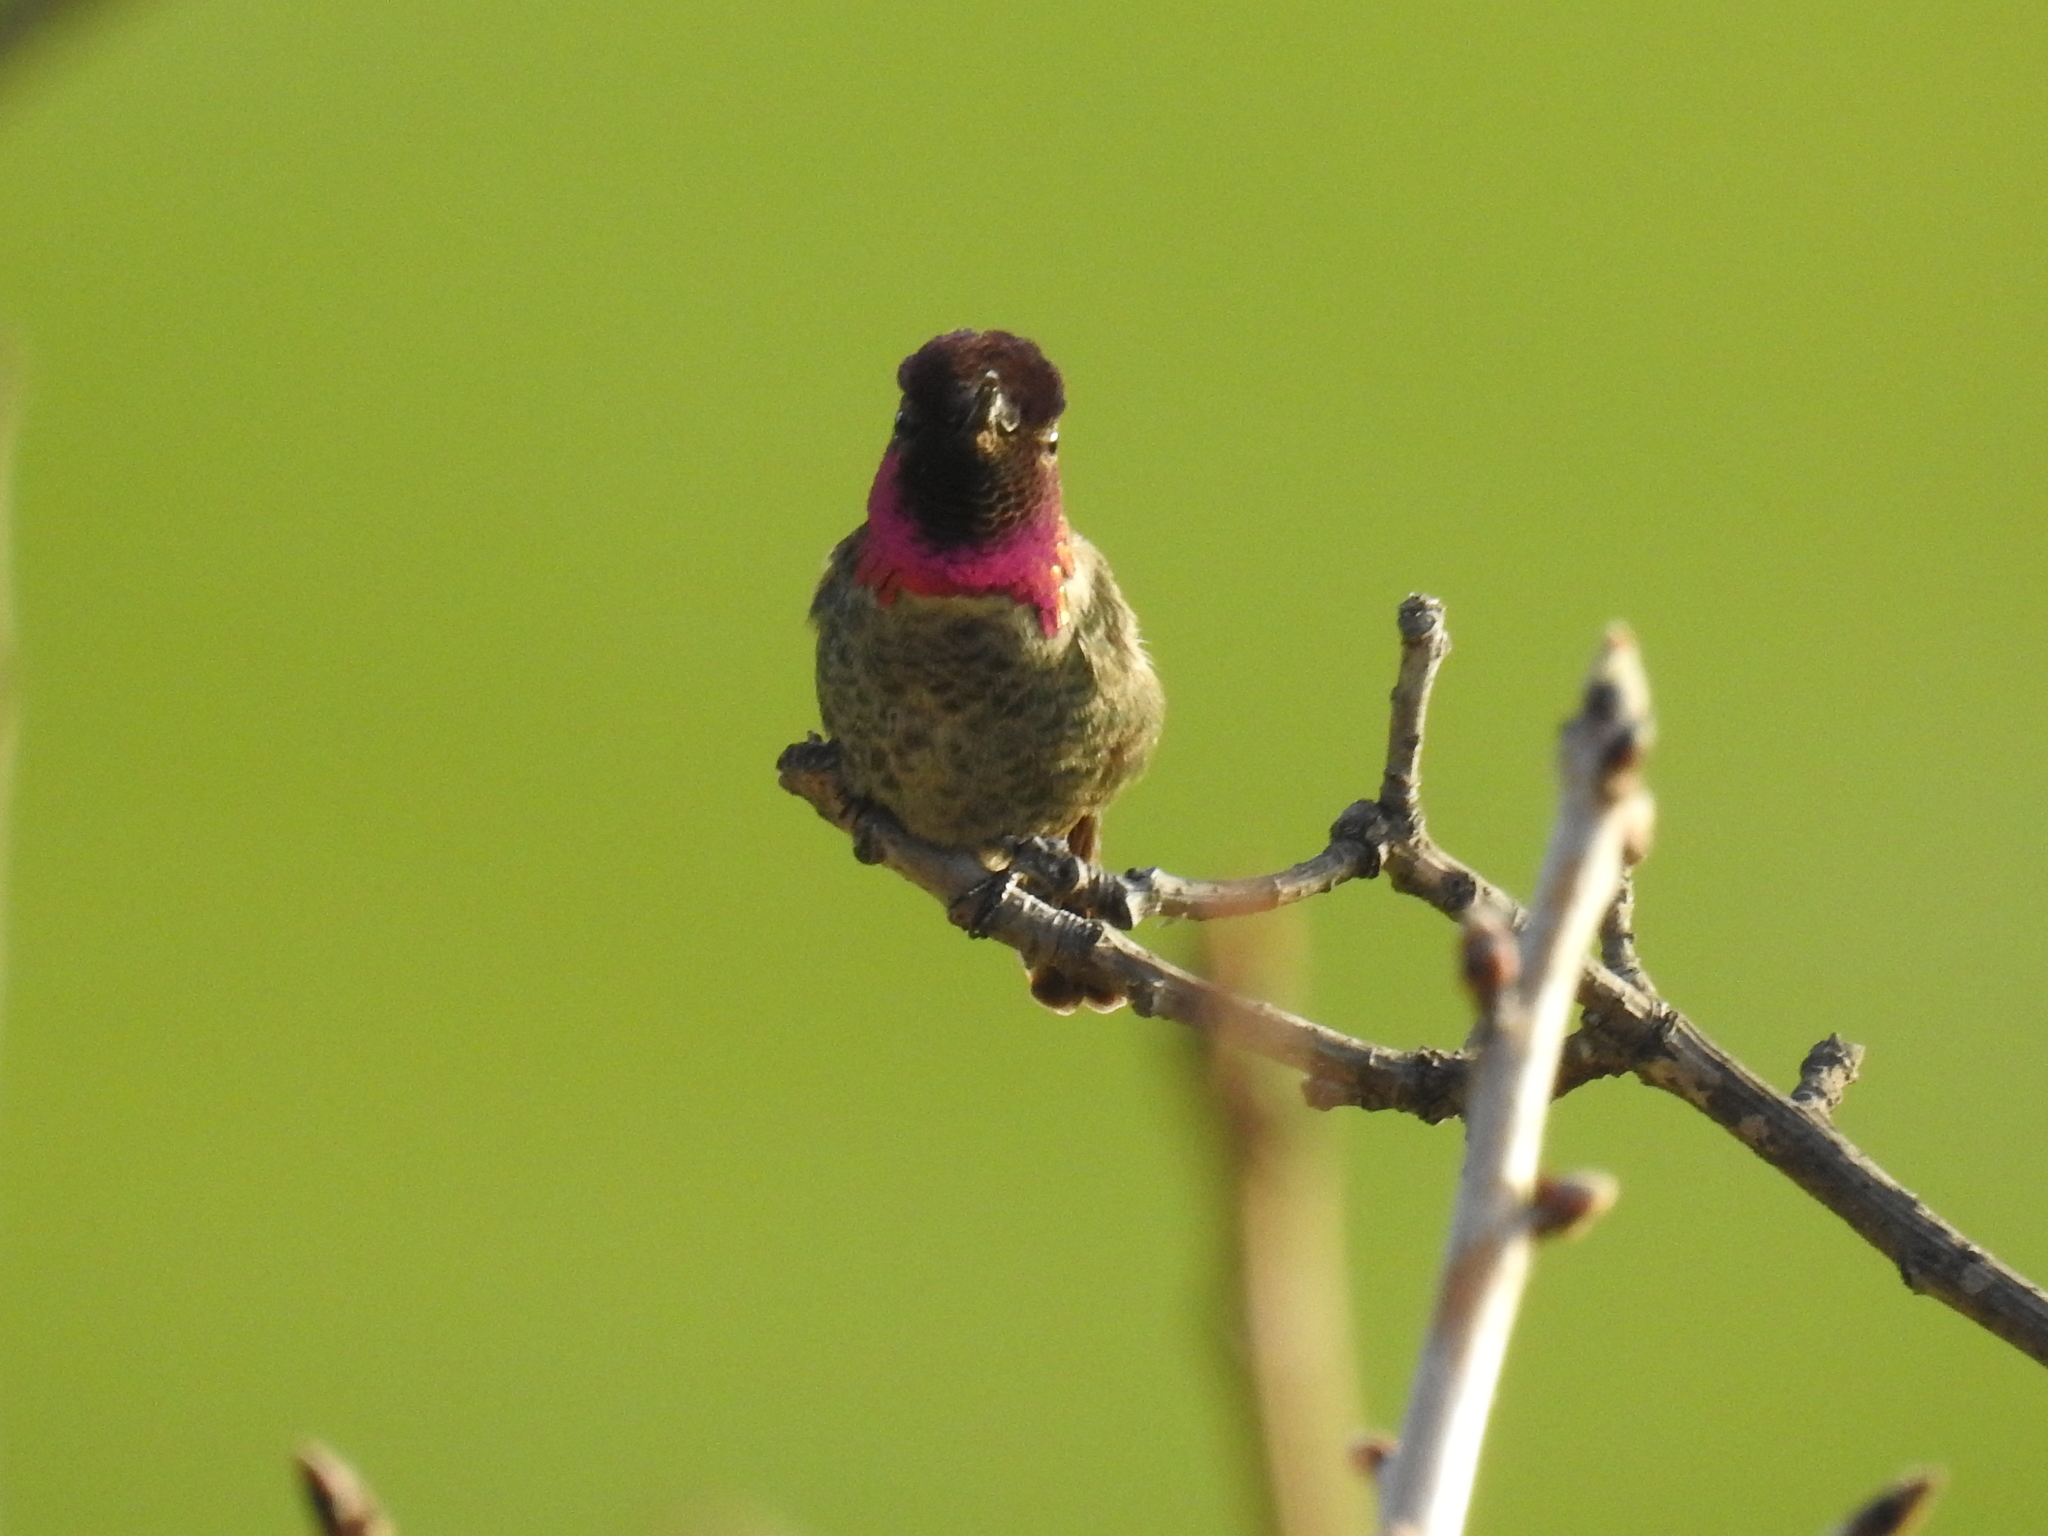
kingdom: Animalia
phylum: Chordata
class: Aves
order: Apodiformes
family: Trochilidae
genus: Calypte
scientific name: Calypte anna
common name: Anna's hummingbird
